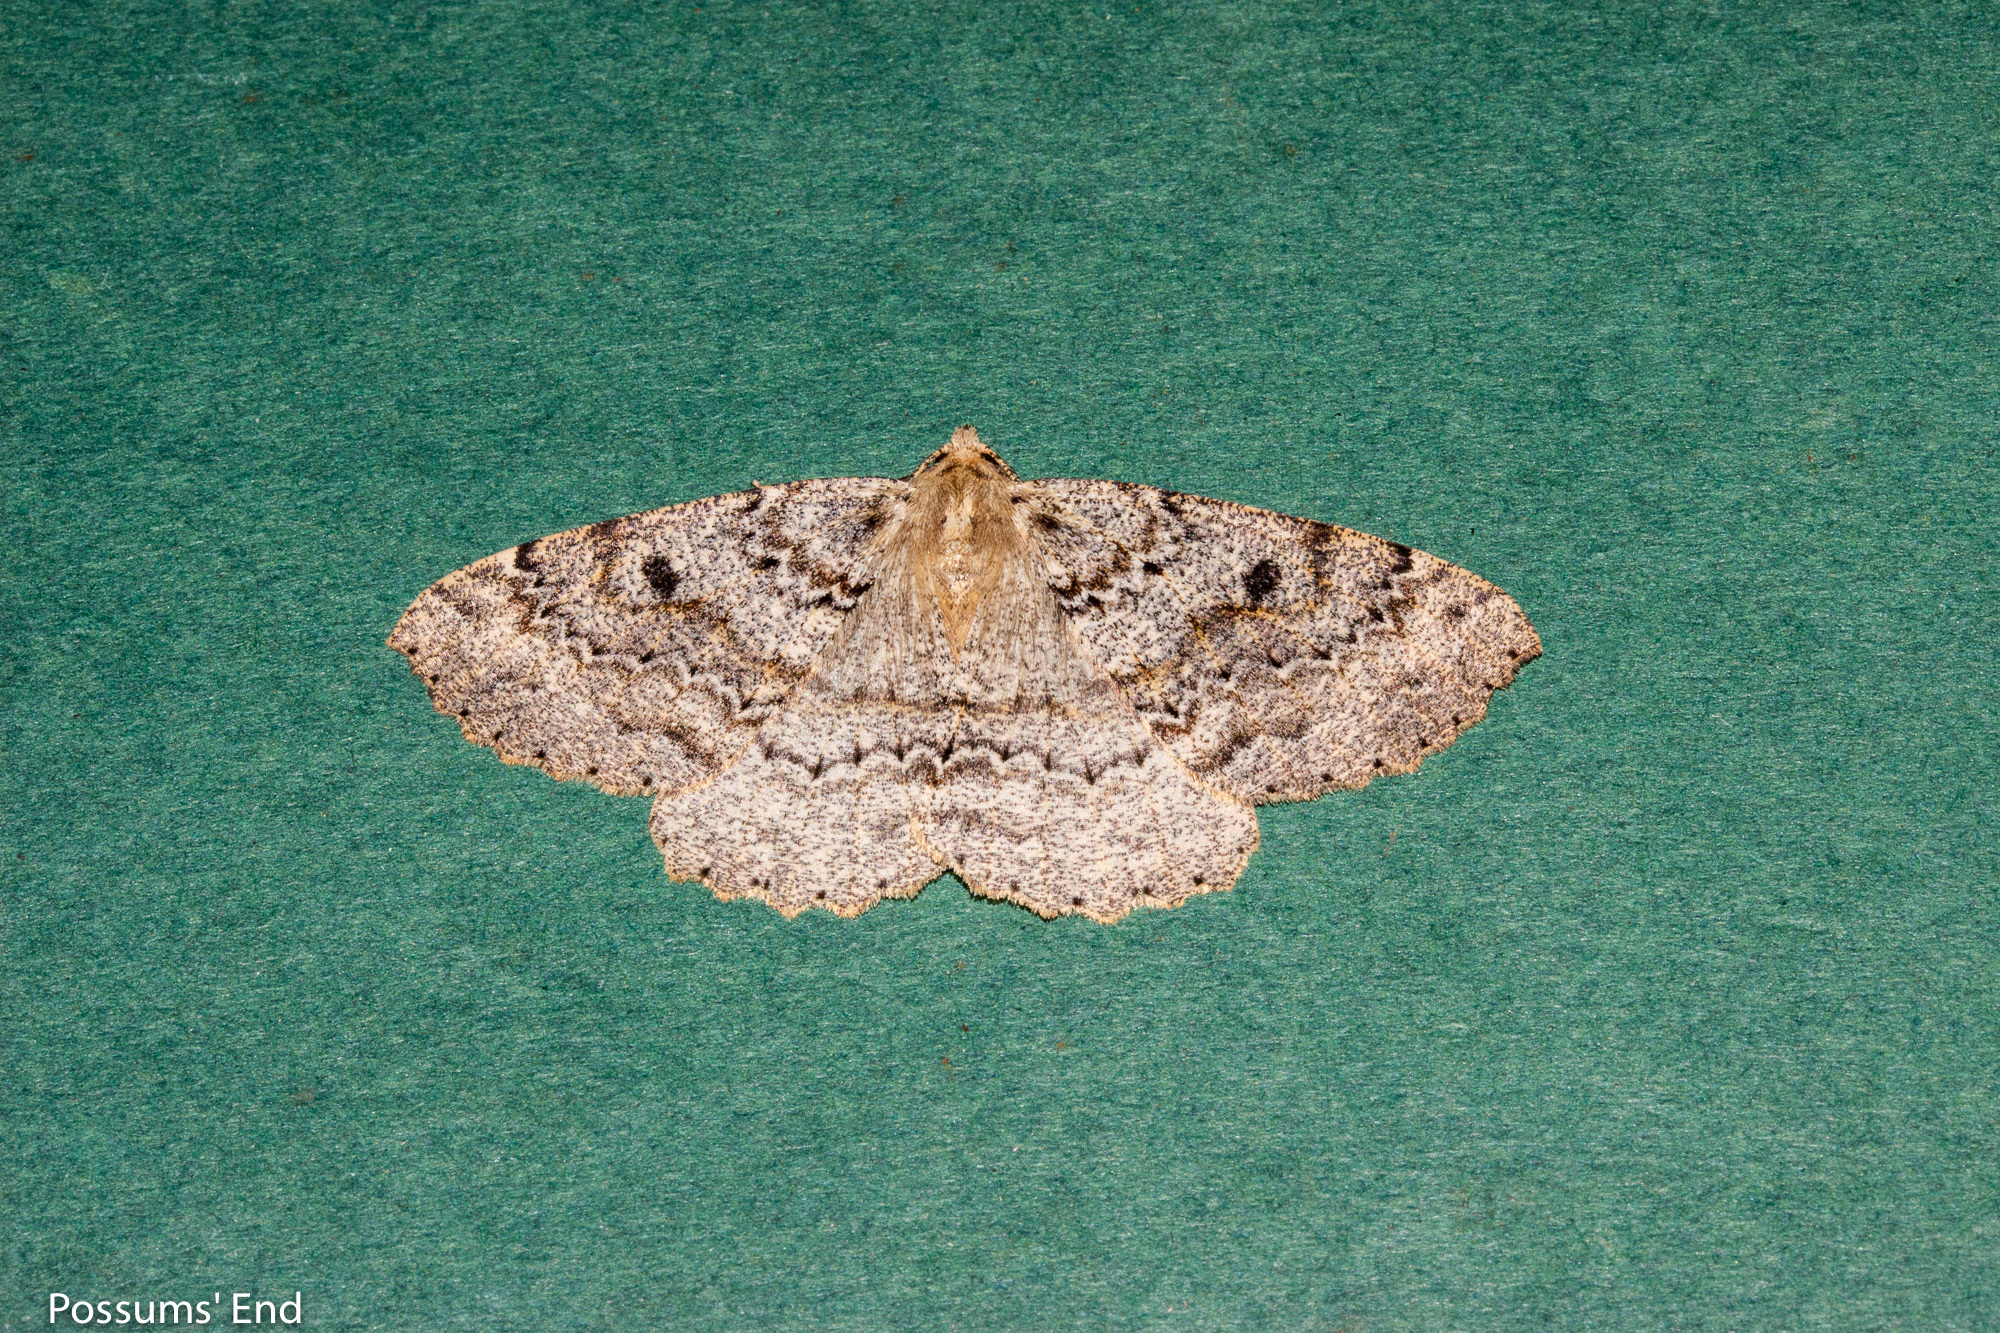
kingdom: Animalia
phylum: Arthropoda
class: Insecta
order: Lepidoptera
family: Geometridae
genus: Cleora
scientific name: Cleora scriptaria
